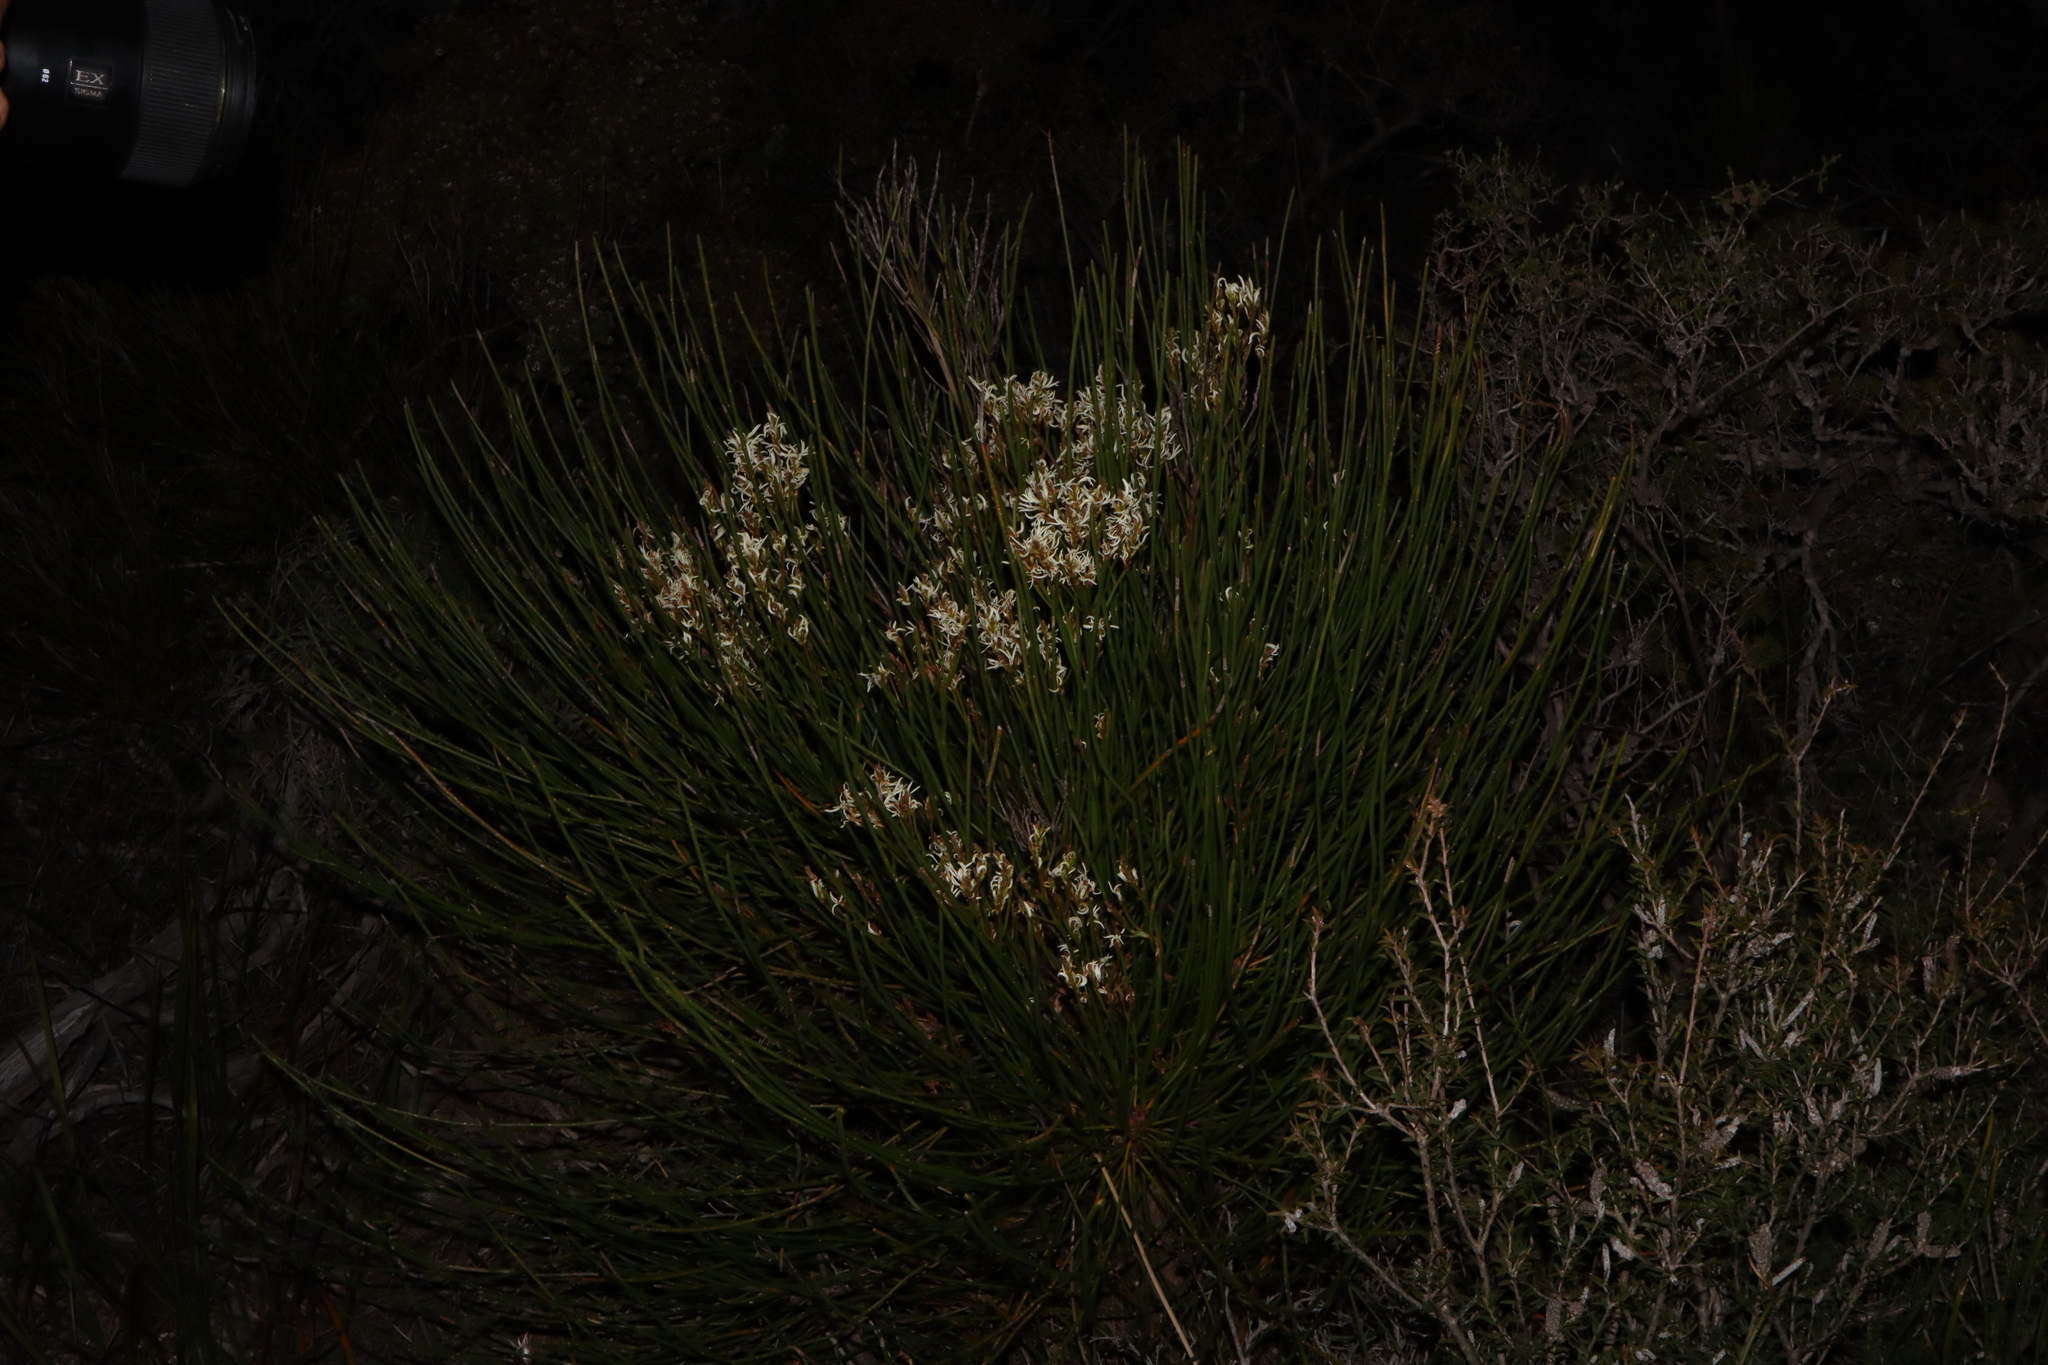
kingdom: Plantae
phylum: Tracheophyta
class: Magnoliopsida
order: Proteales
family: Proteaceae
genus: Conospermum
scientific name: Conospermum teretifolium
